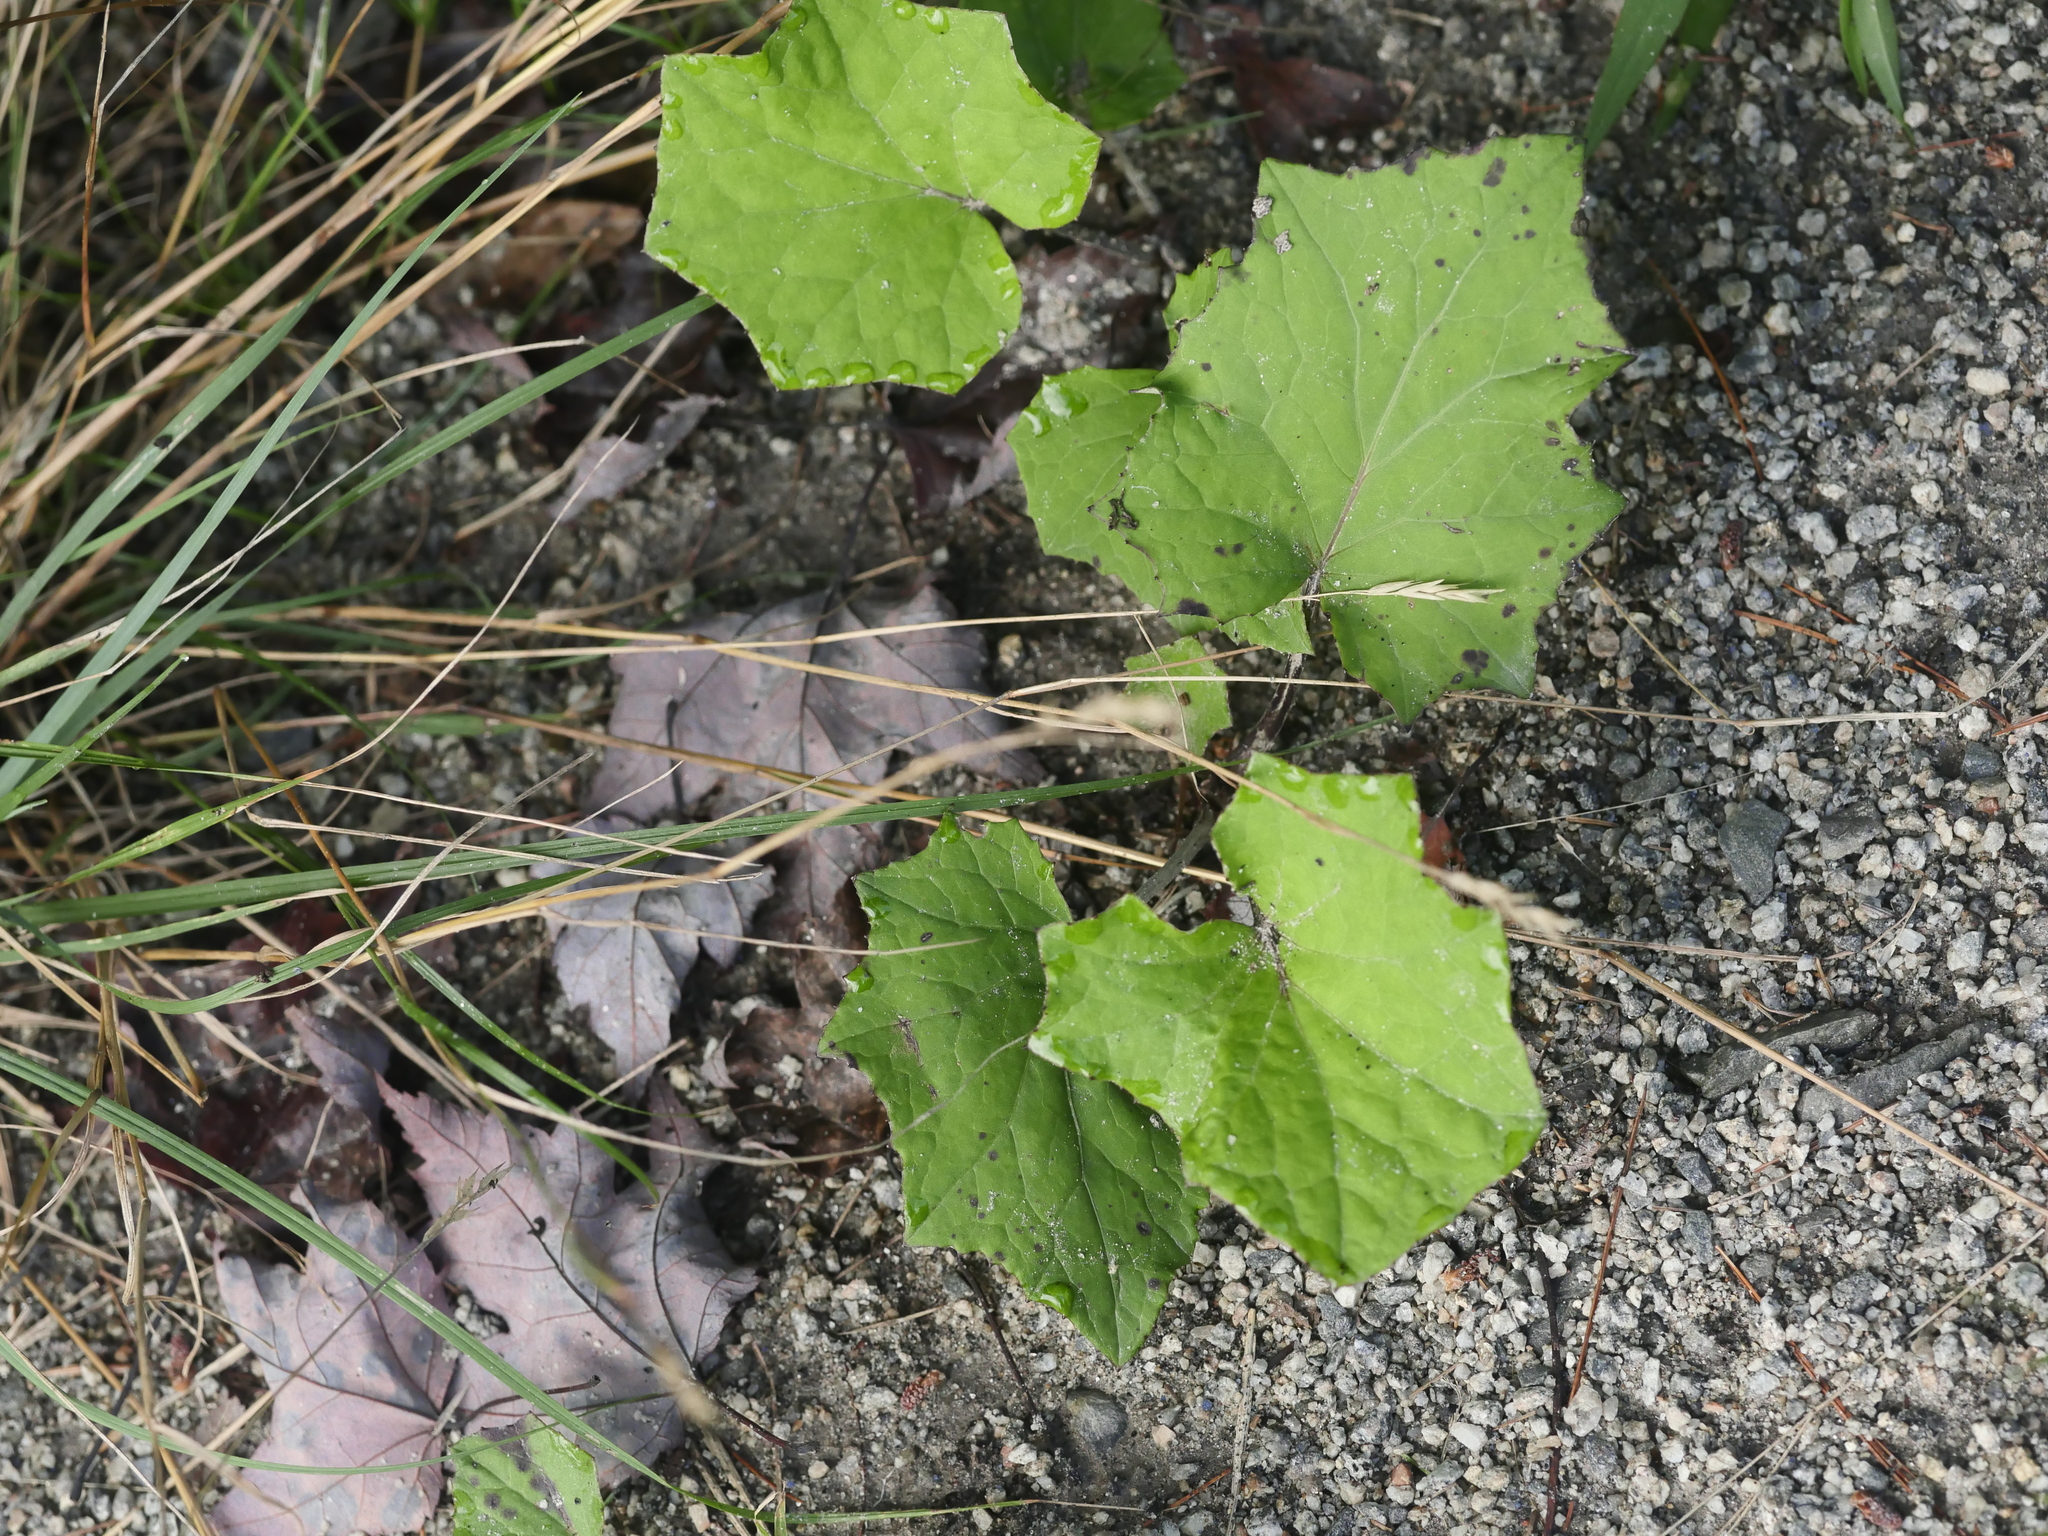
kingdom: Plantae
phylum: Tracheophyta
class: Magnoliopsida
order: Asterales
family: Asteraceae
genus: Tussilago
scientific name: Tussilago farfara
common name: Coltsfoot
